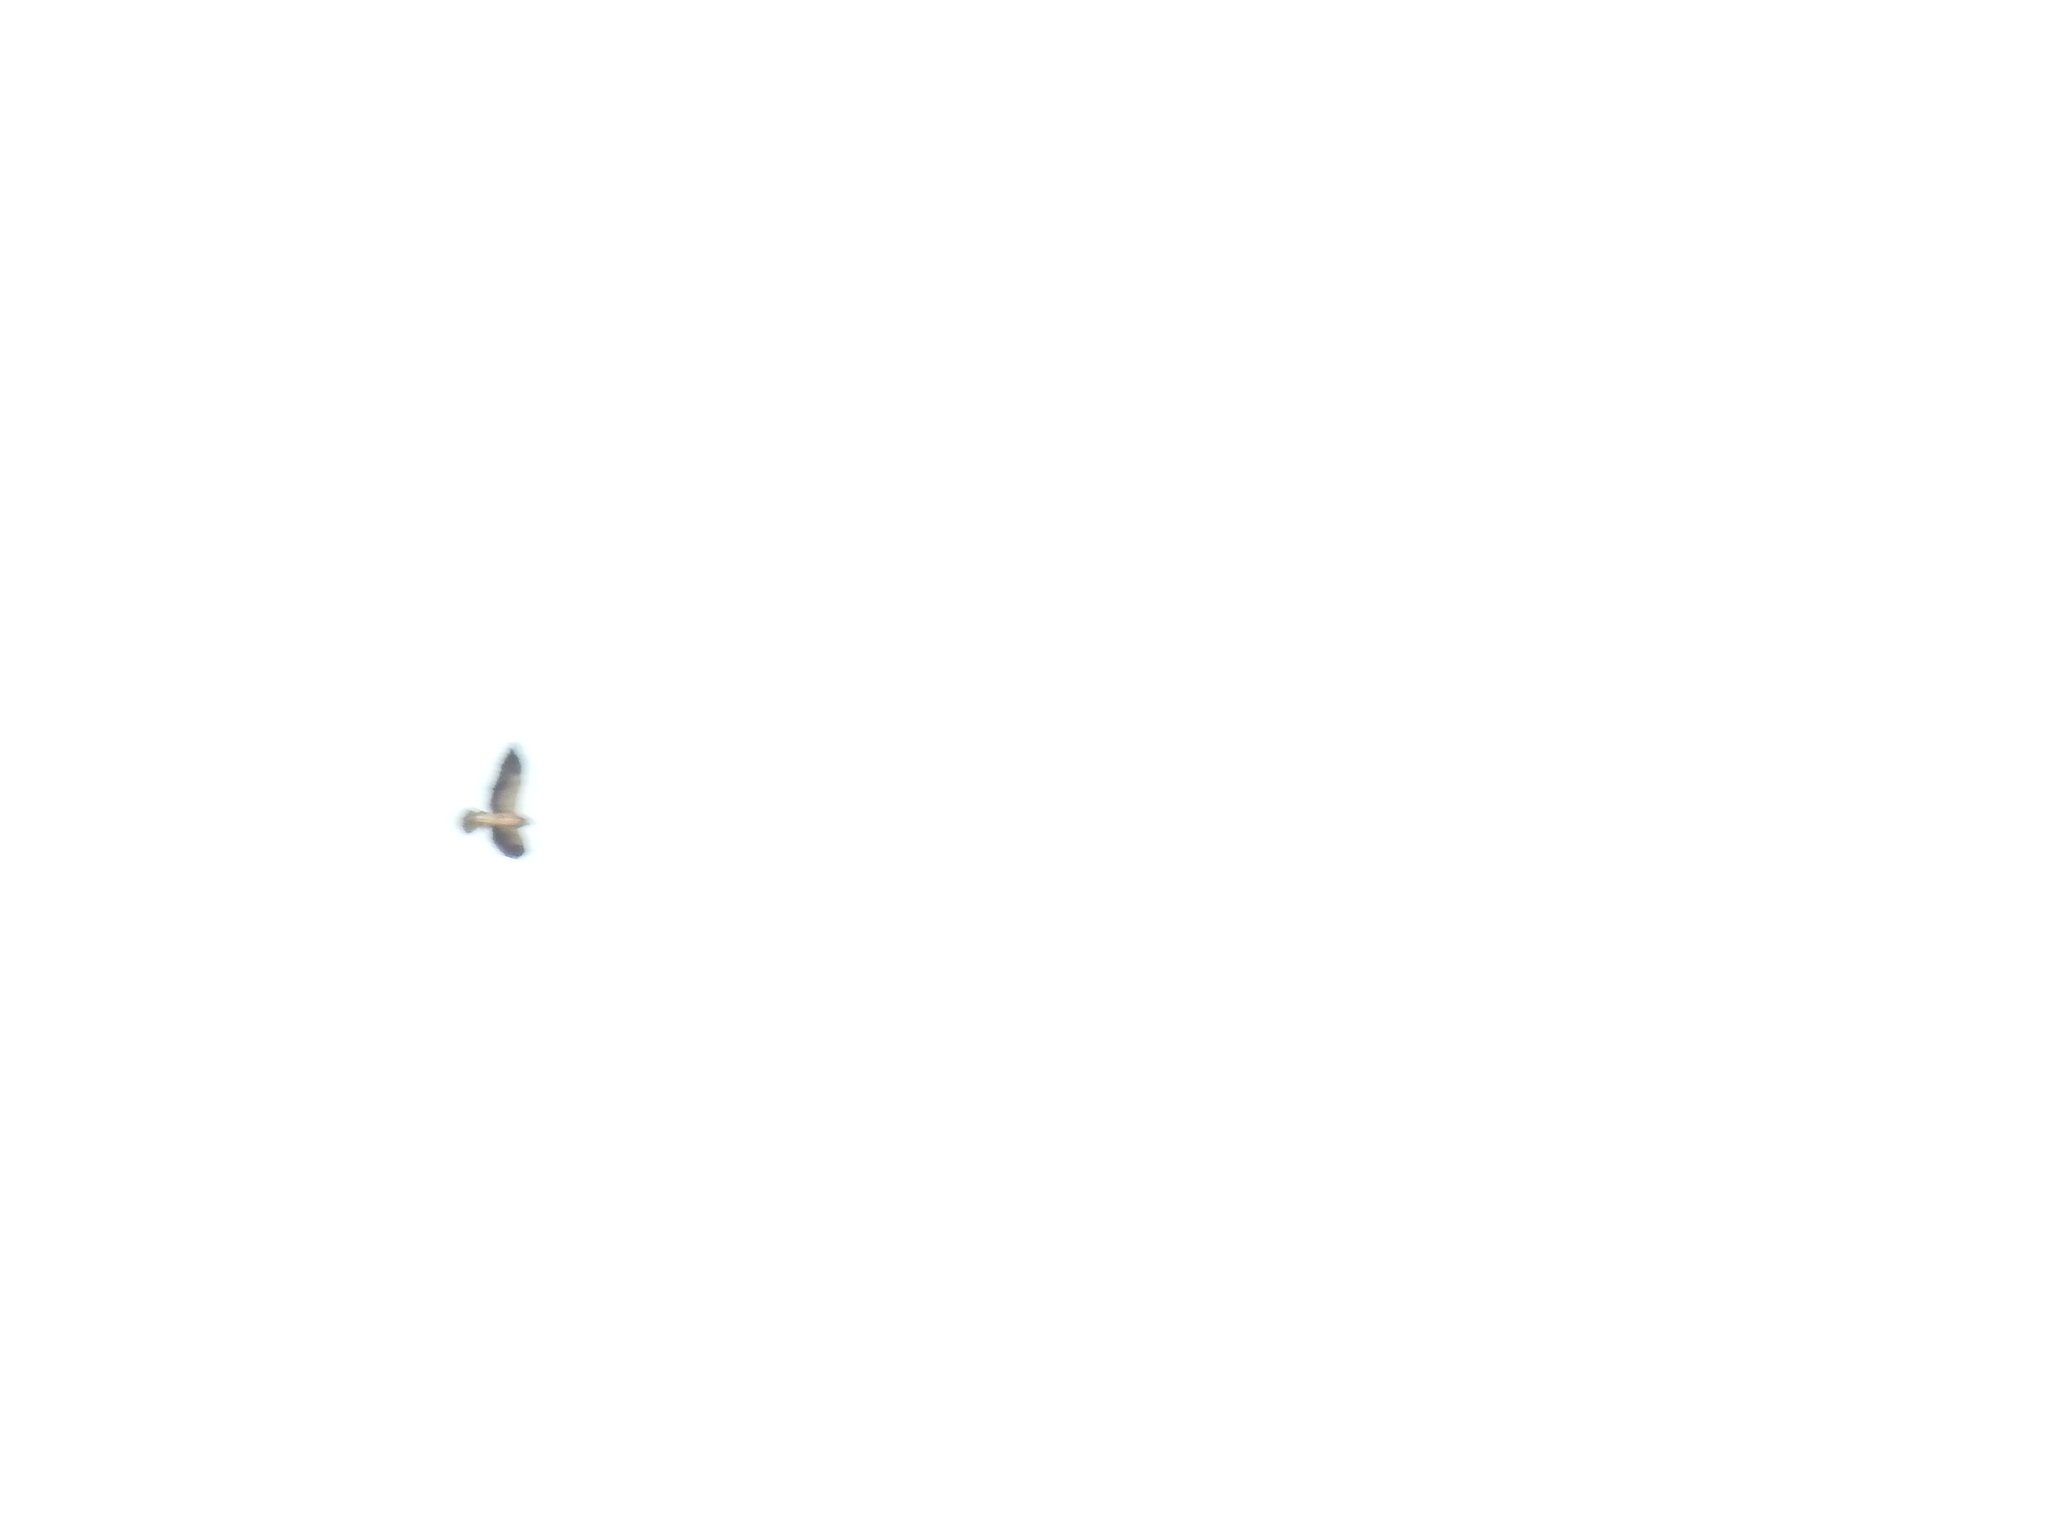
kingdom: Animalia
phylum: Chordata
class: Aves
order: Accipitriformes
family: Accipitridae
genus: Buteo
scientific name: Buteo swainsoni
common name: Swainson's hawk
